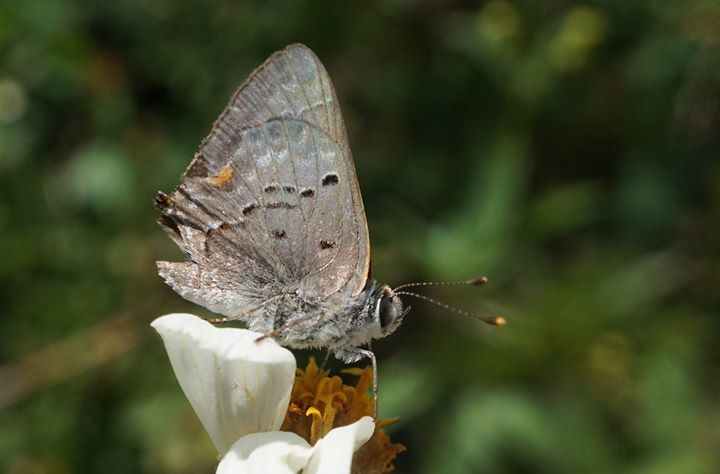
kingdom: Animalia
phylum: Arthropoda
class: Insecta
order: Lepidoptera
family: Lycaenidae
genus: Callicista
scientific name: Callicista columella
